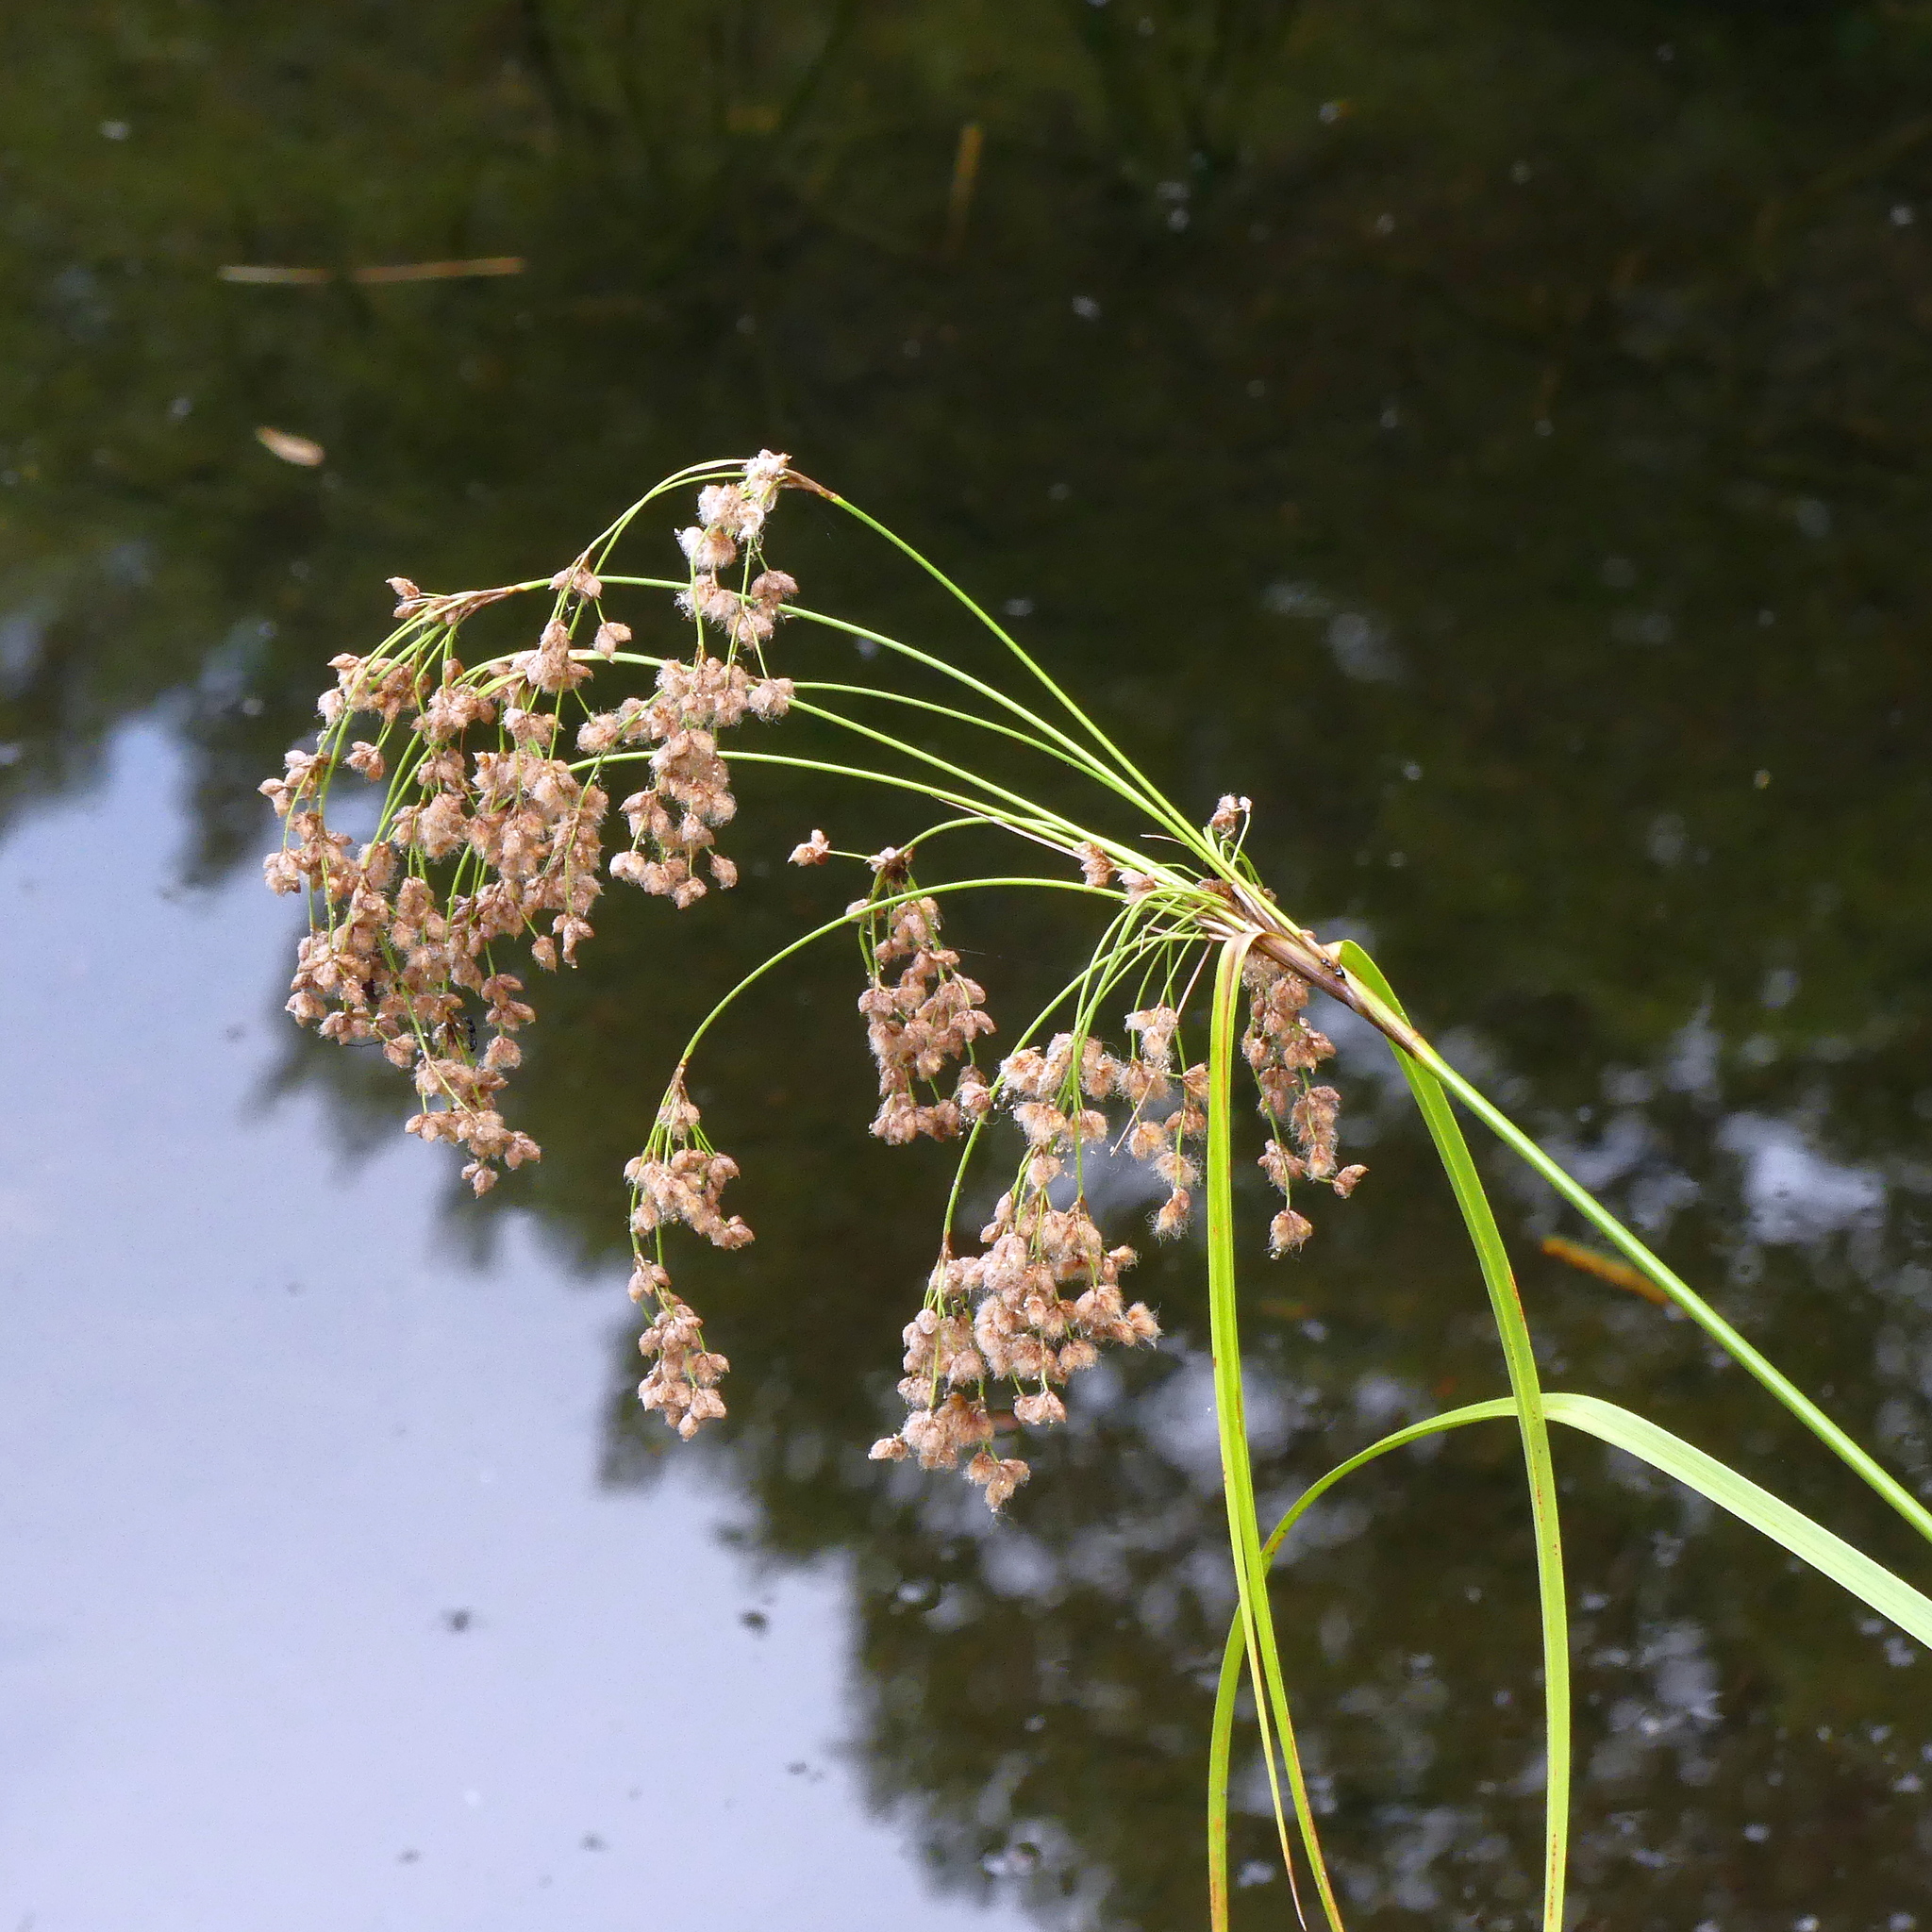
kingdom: Plantae
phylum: Tracheophyta
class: Liliopsida
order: Poales
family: Cyperaceae
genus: Scirpus
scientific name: Scirpus cyperinus
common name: Black-sheathed bulrush
